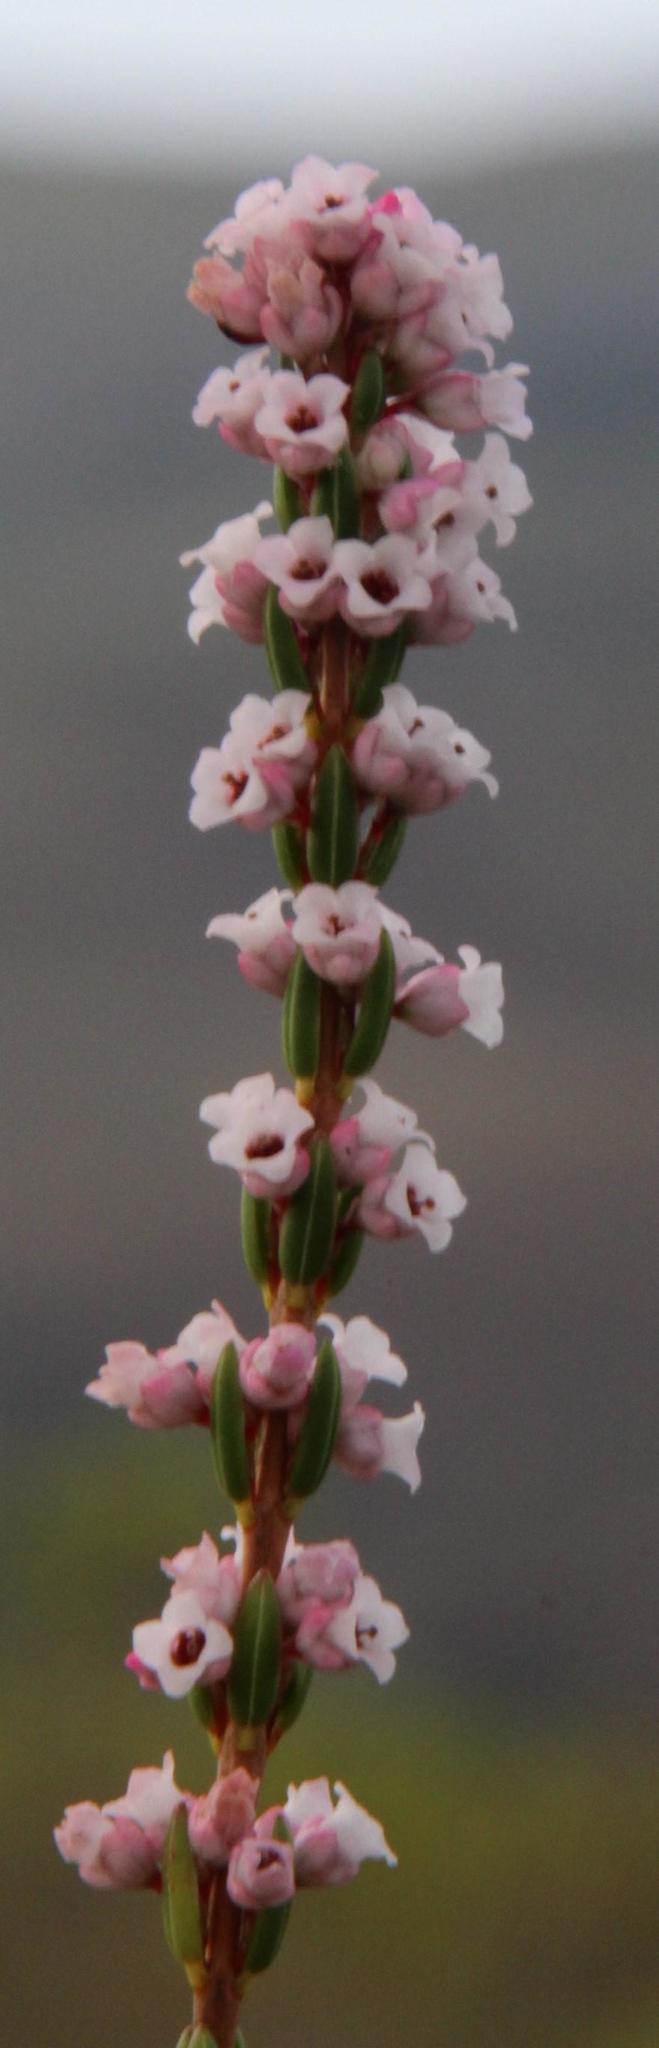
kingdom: Plantae
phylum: Tracheophyta
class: Magnoliopsida
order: Ericales
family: Ericaceae
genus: Erica
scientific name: Erica articularis
